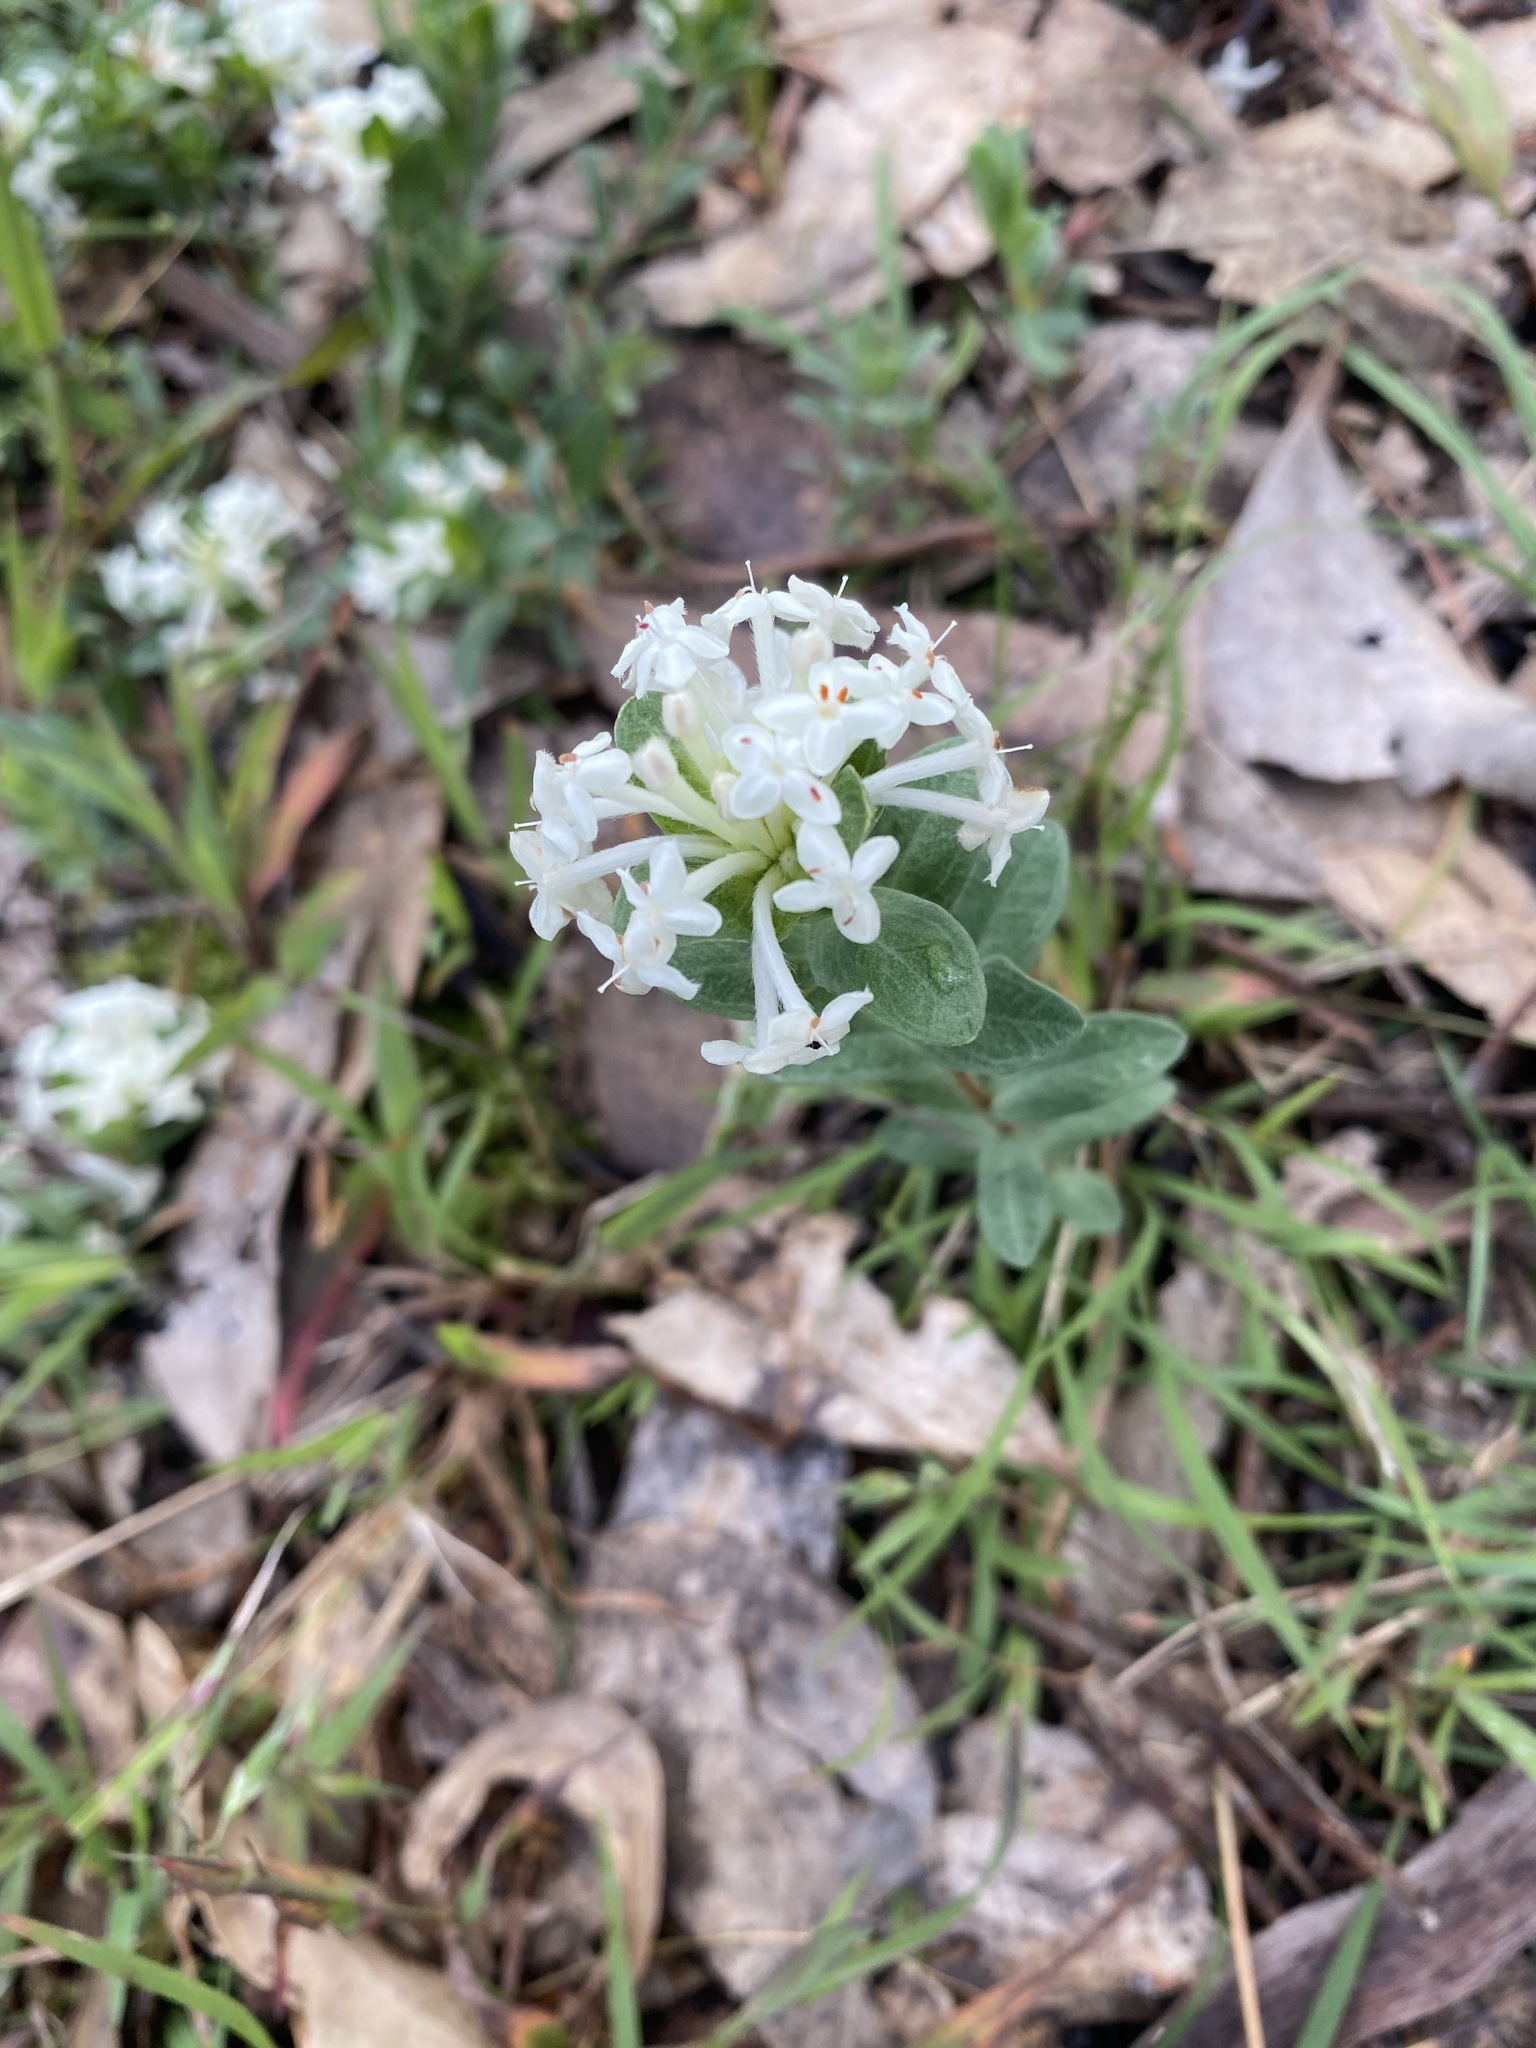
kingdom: Plantae
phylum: Tracheophyta
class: Magnoliopsida
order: Malvales
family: Thymelaeaceae
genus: Pimelea
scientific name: Pimelea humilis
